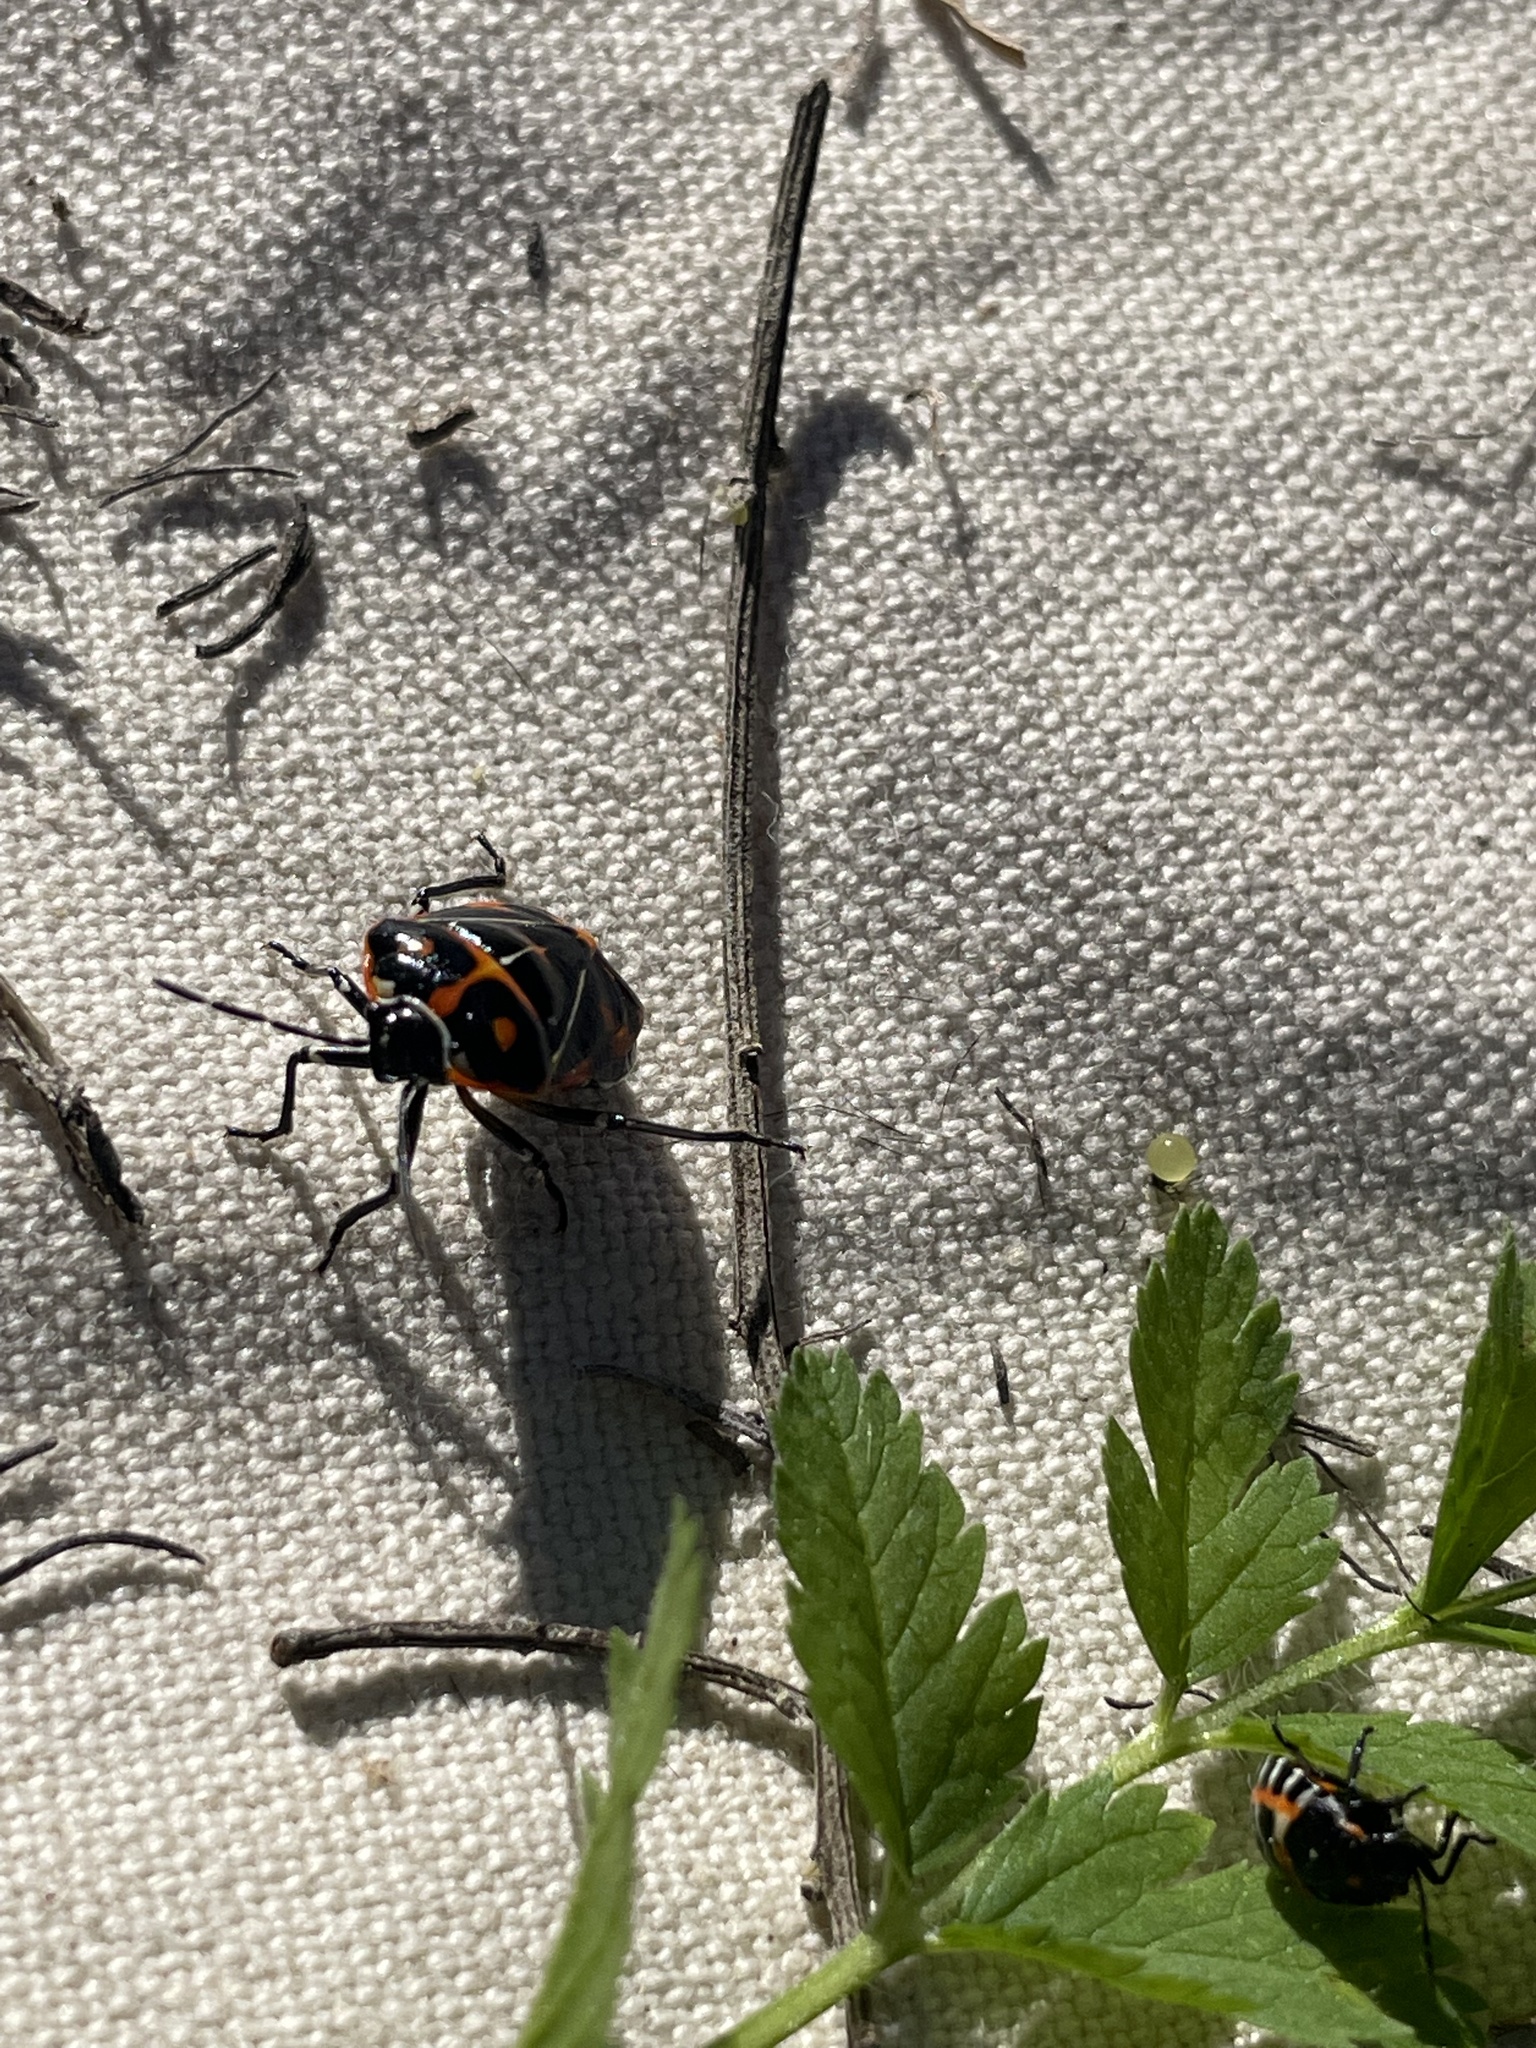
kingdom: Animalia
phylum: Arthropoda
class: Insecta
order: Hemiptera
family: Pentatomidae
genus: Murgantia
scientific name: Murgantia histrionica
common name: Harlequin bug
